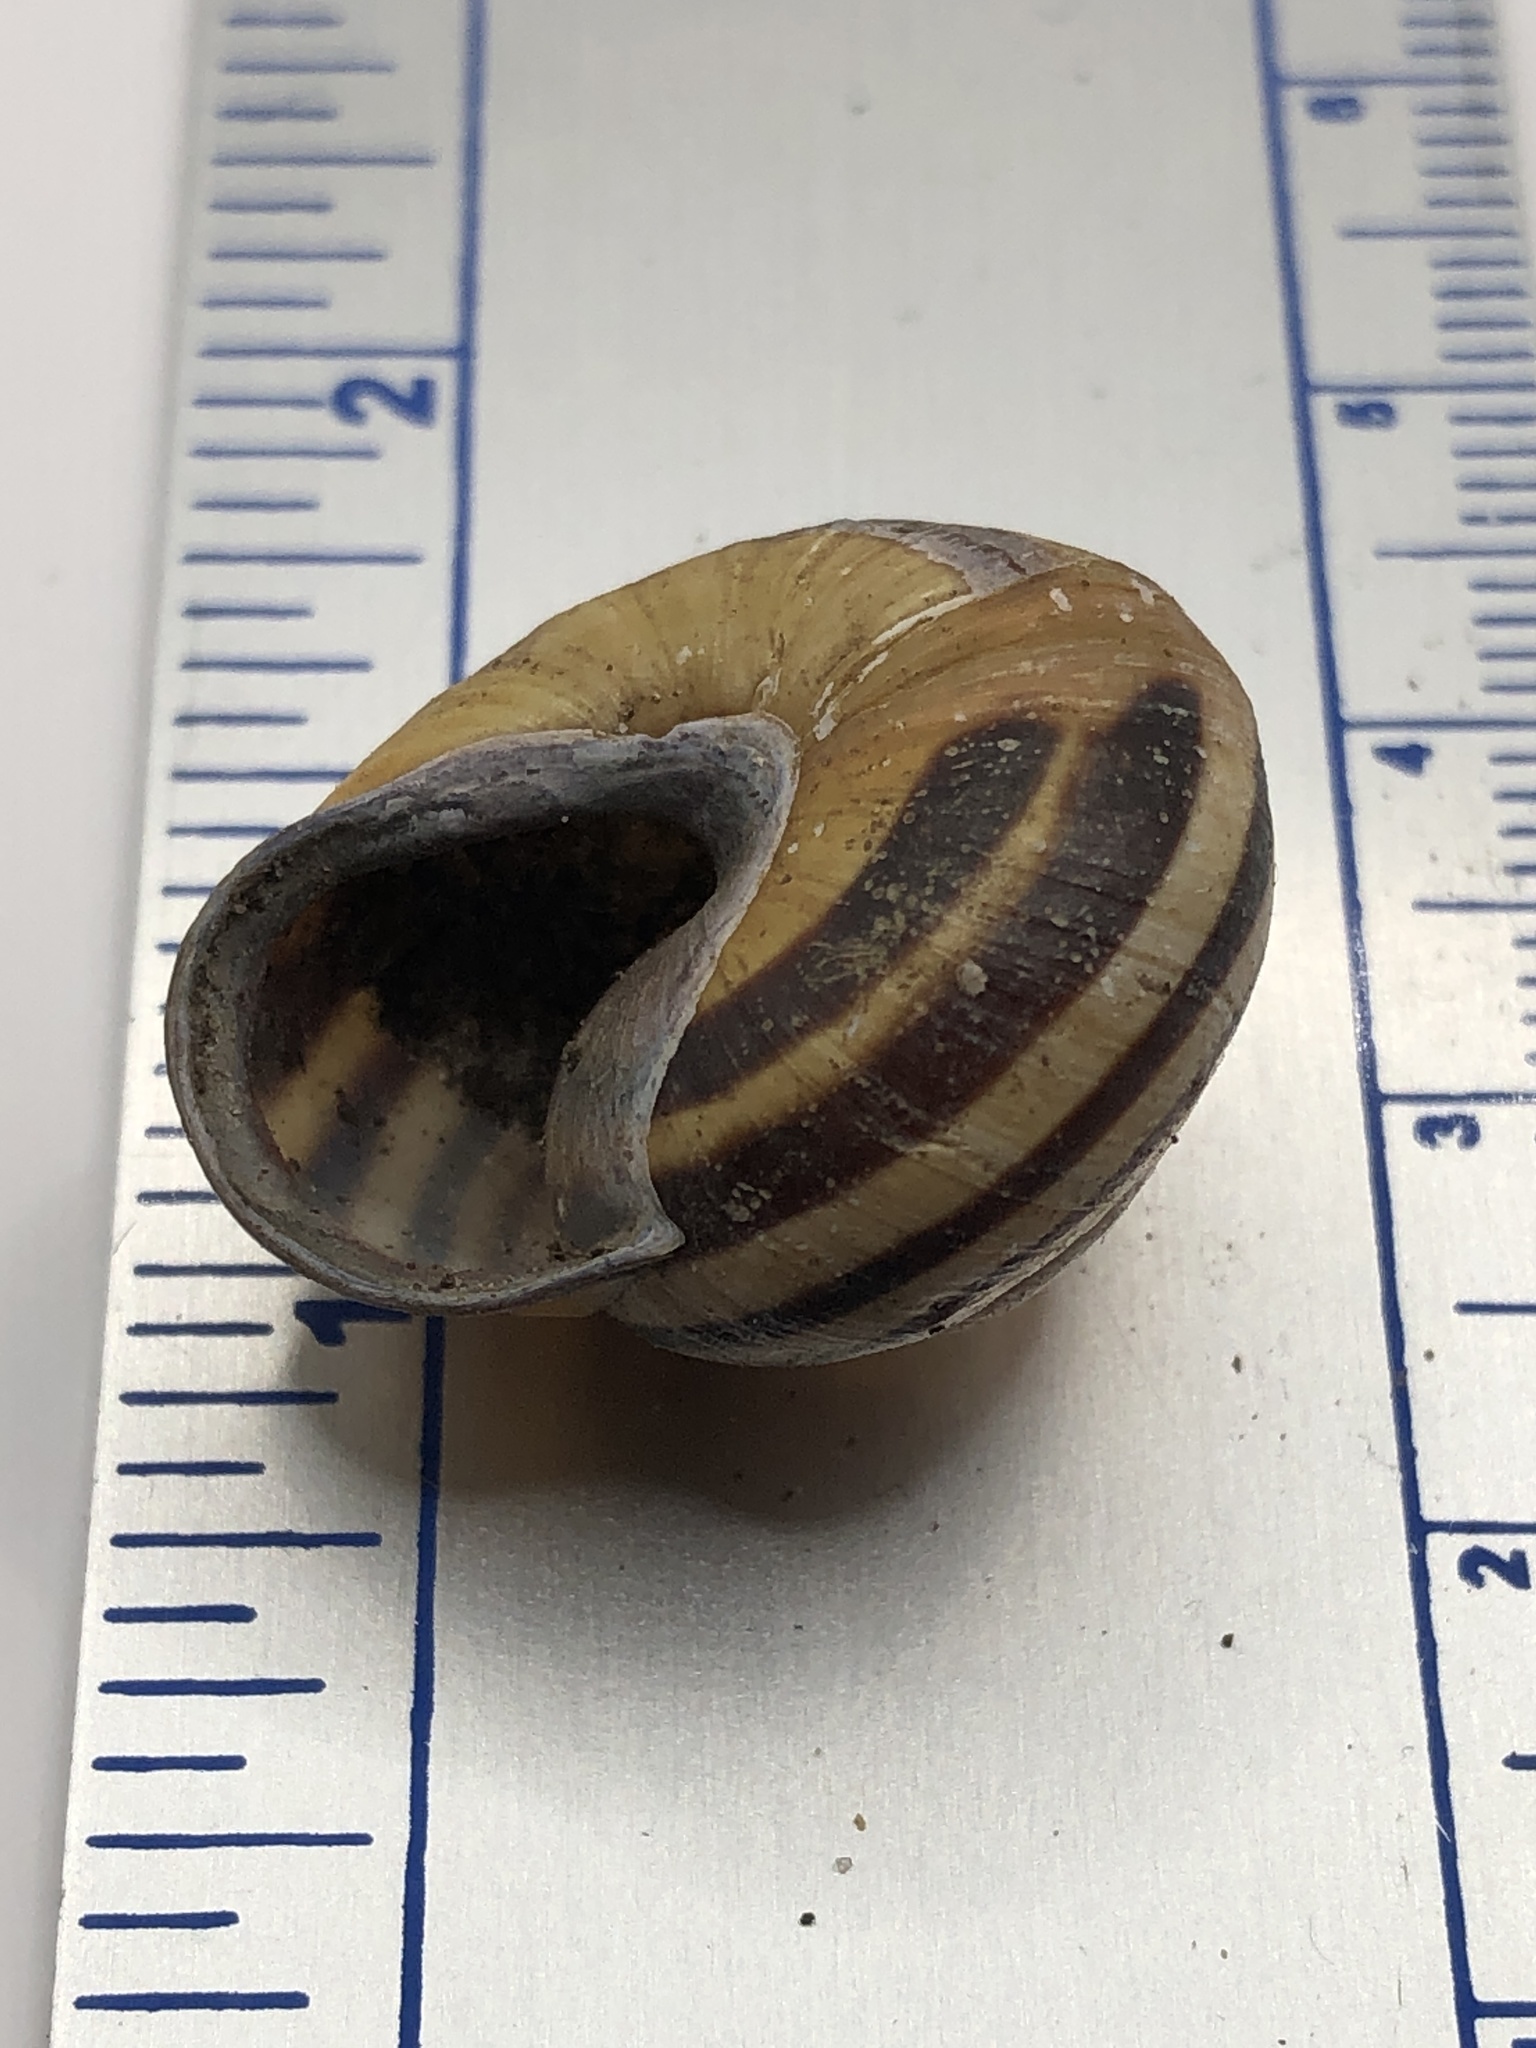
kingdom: Animalia
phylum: Mollusca
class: Gastropoda
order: Stylommatophora
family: Helicidae
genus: Cepaea
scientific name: Cepaea nemoralis
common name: Grovesnail
